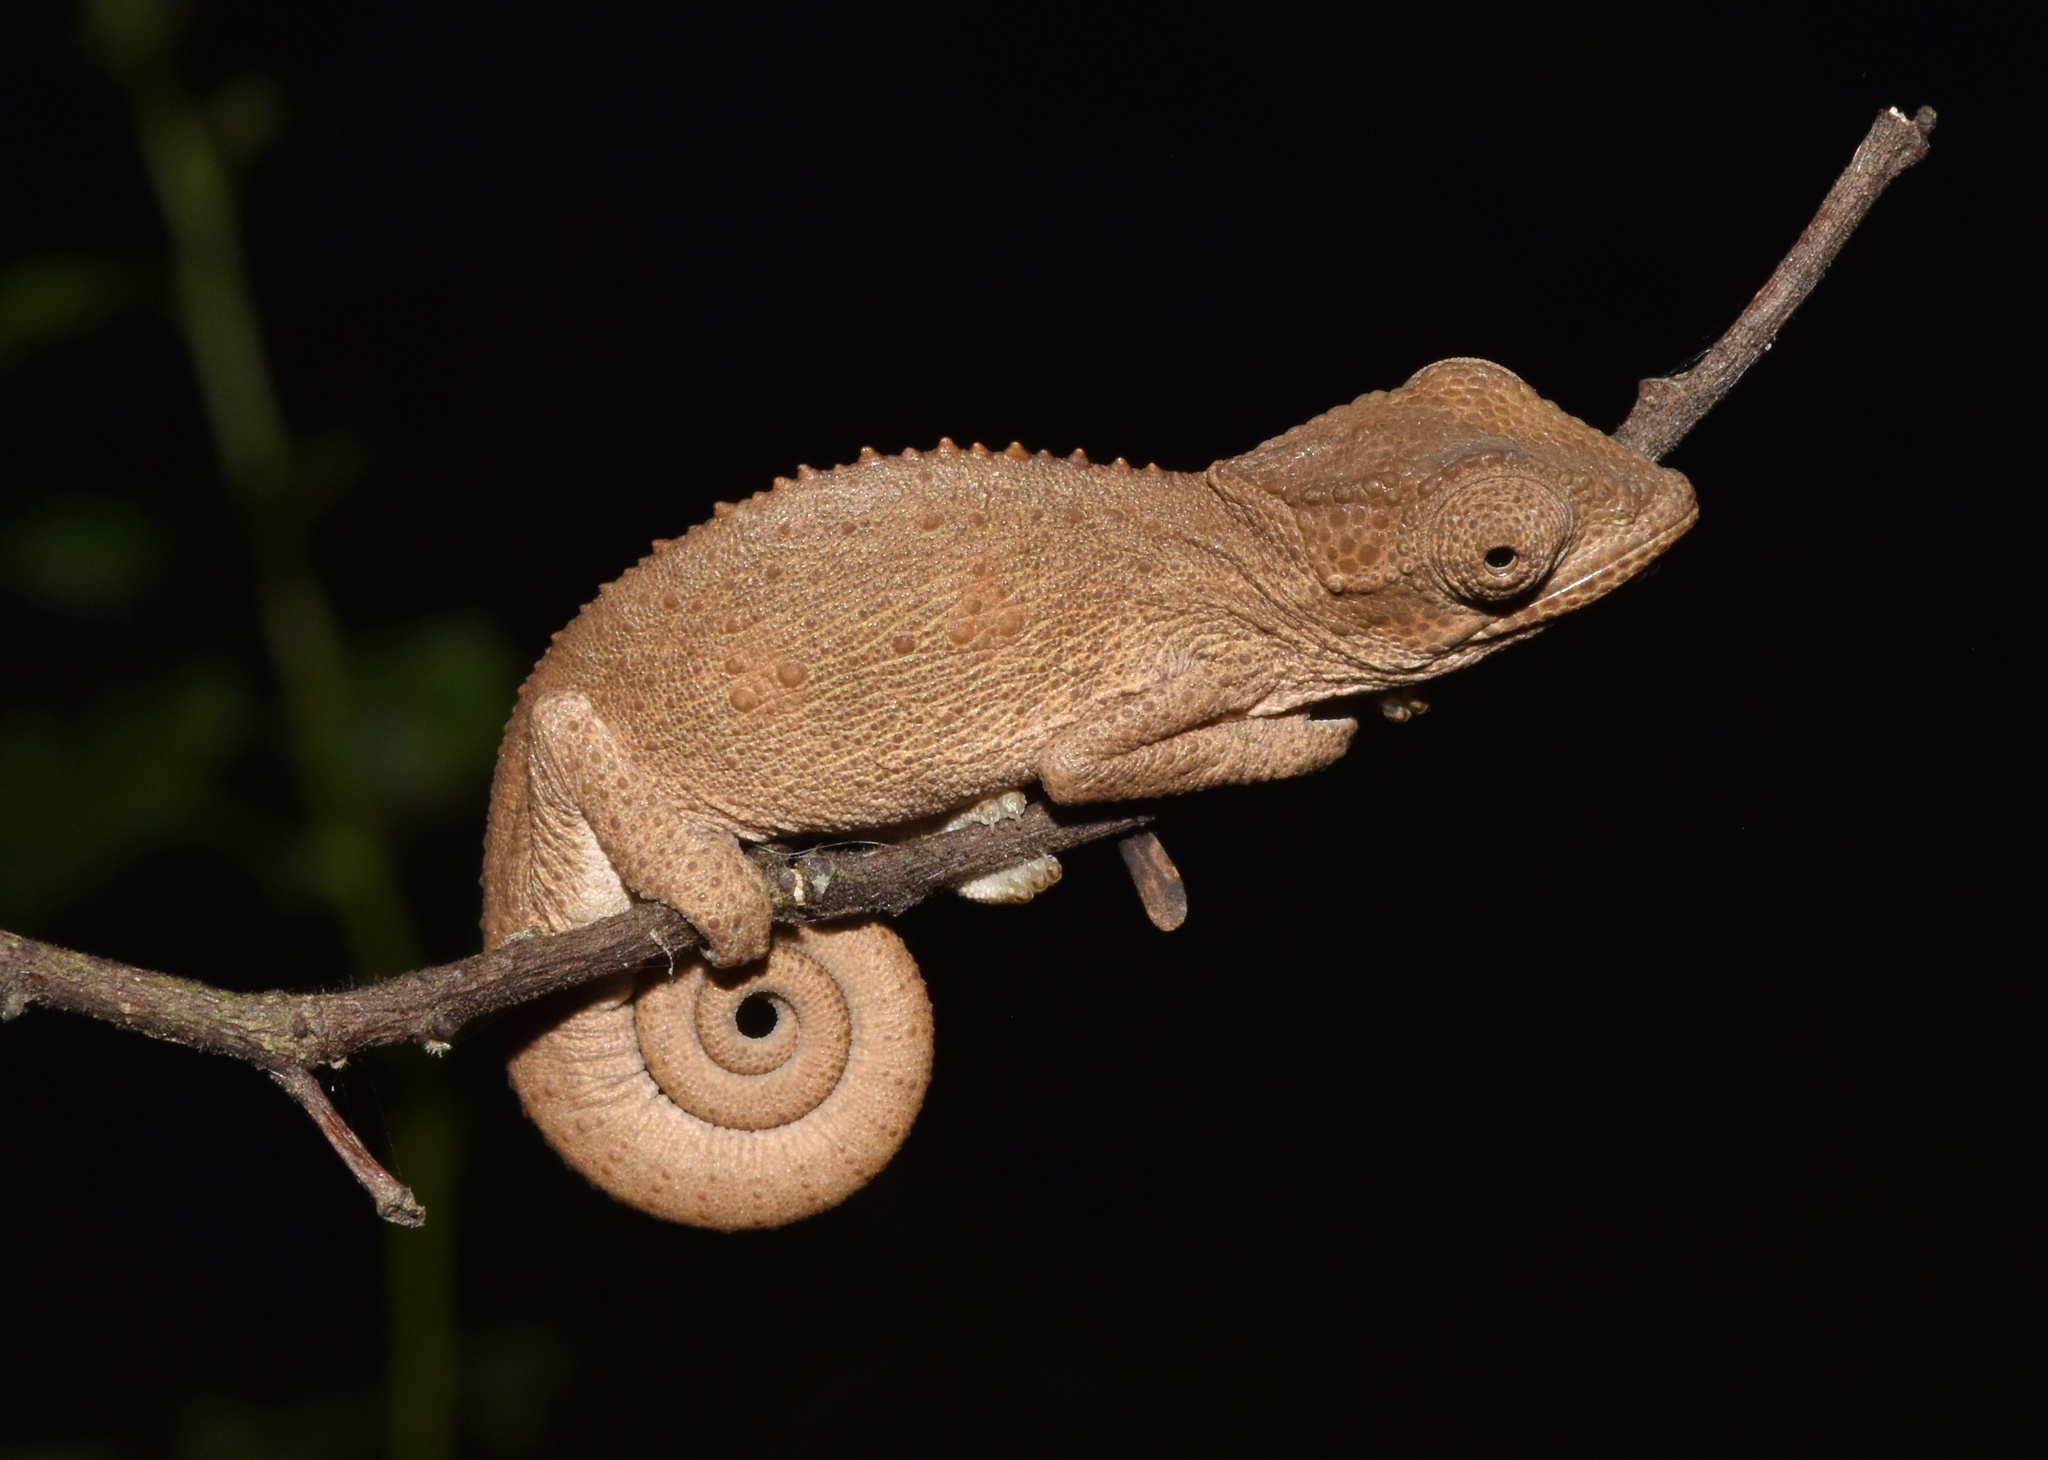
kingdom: Animalia
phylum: Chordata
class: Squamata
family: Chamaeleonidae
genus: Bradypodion
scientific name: Bradypodion melanocephalum
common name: Black-headed dwarf chameleon
